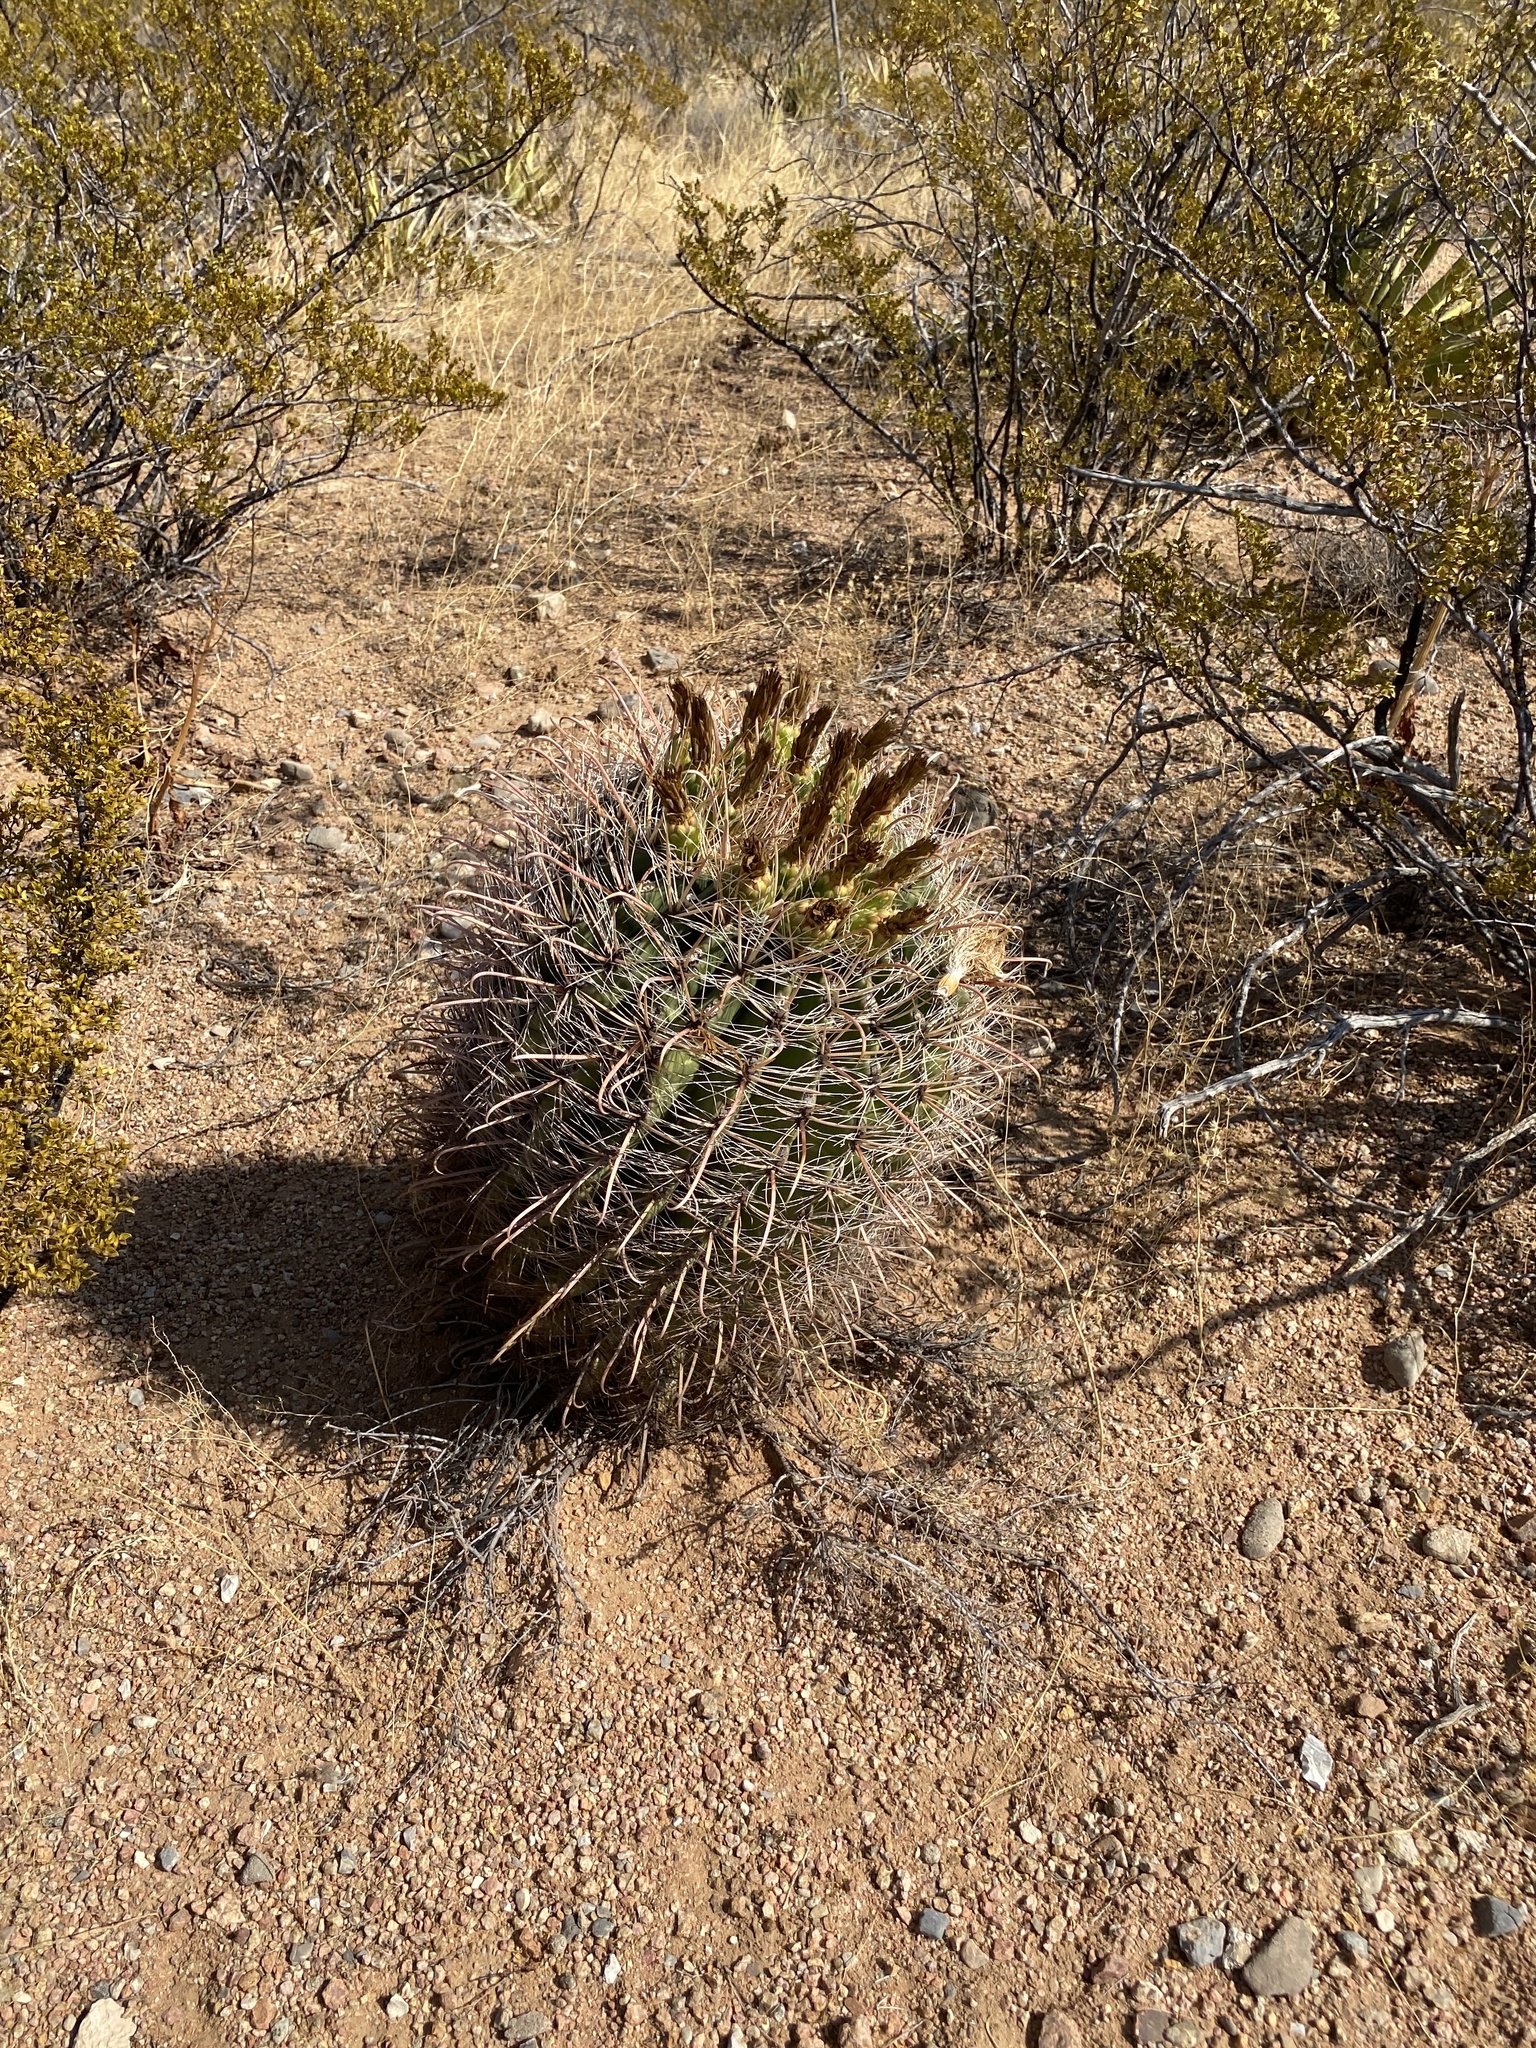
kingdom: Plantae
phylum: Tracheophyta
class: Magnoliopsida
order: Caryophyllales
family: Cactaceae
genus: Ferocactus
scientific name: Ferocactus wislizeni
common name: Candy barrel cactus
